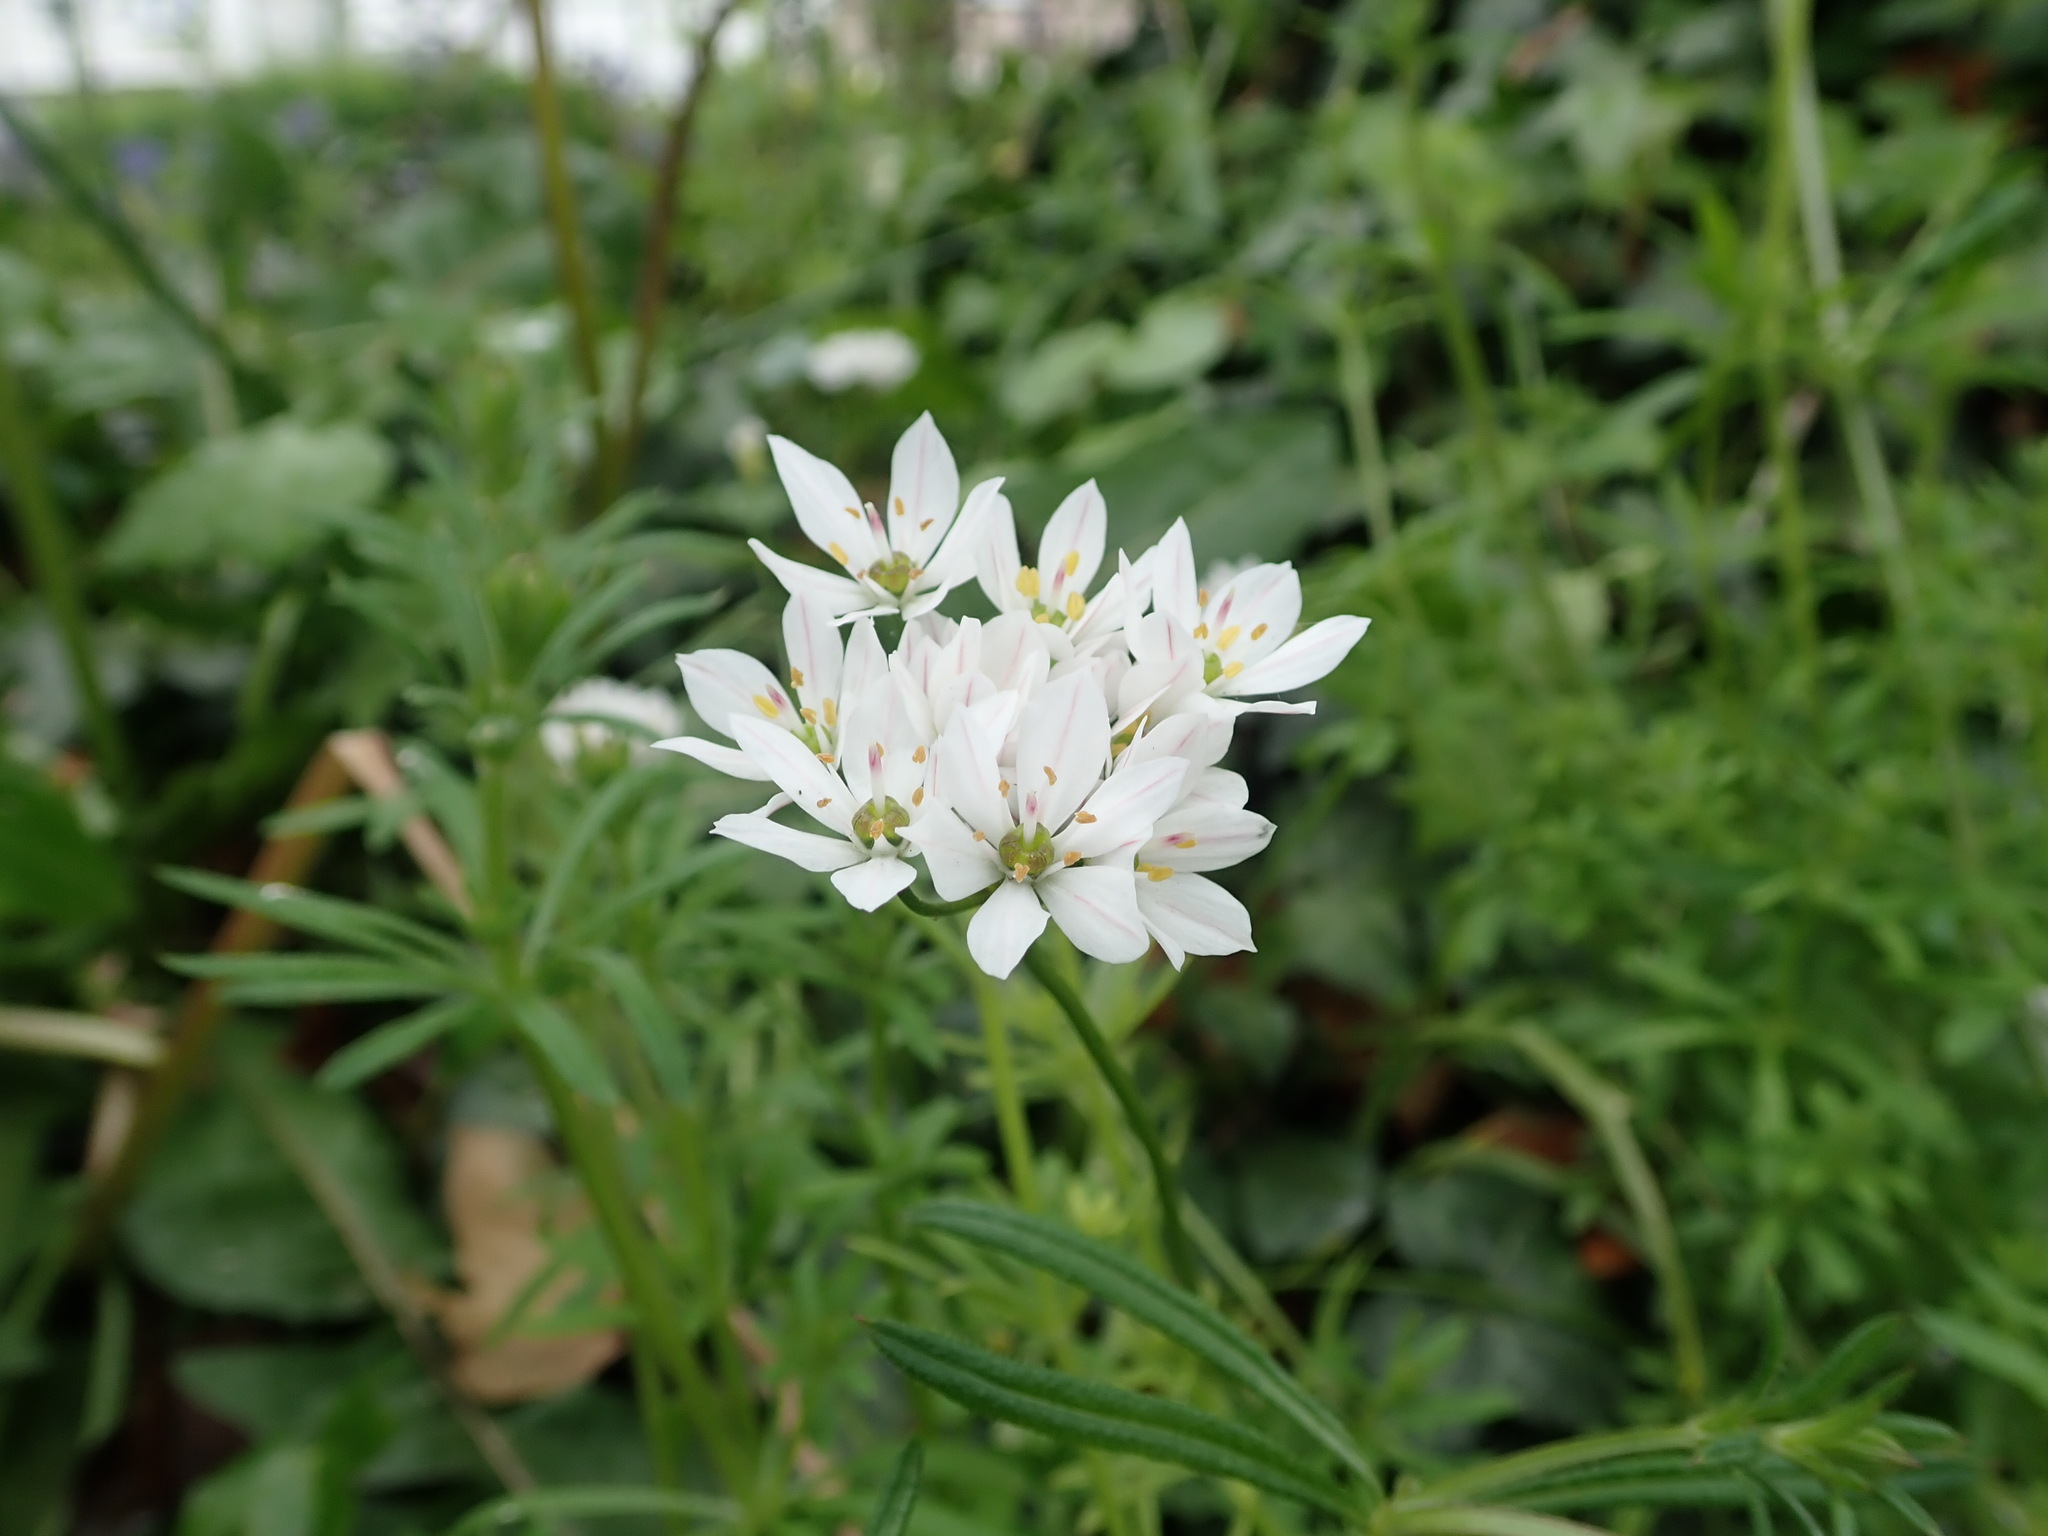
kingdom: Plantae
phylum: Tracheophyta
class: Liliopsida
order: Asparagales
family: Amaryllidaceae
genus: Allium
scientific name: Allium trifoliatum
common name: Pink garlic
